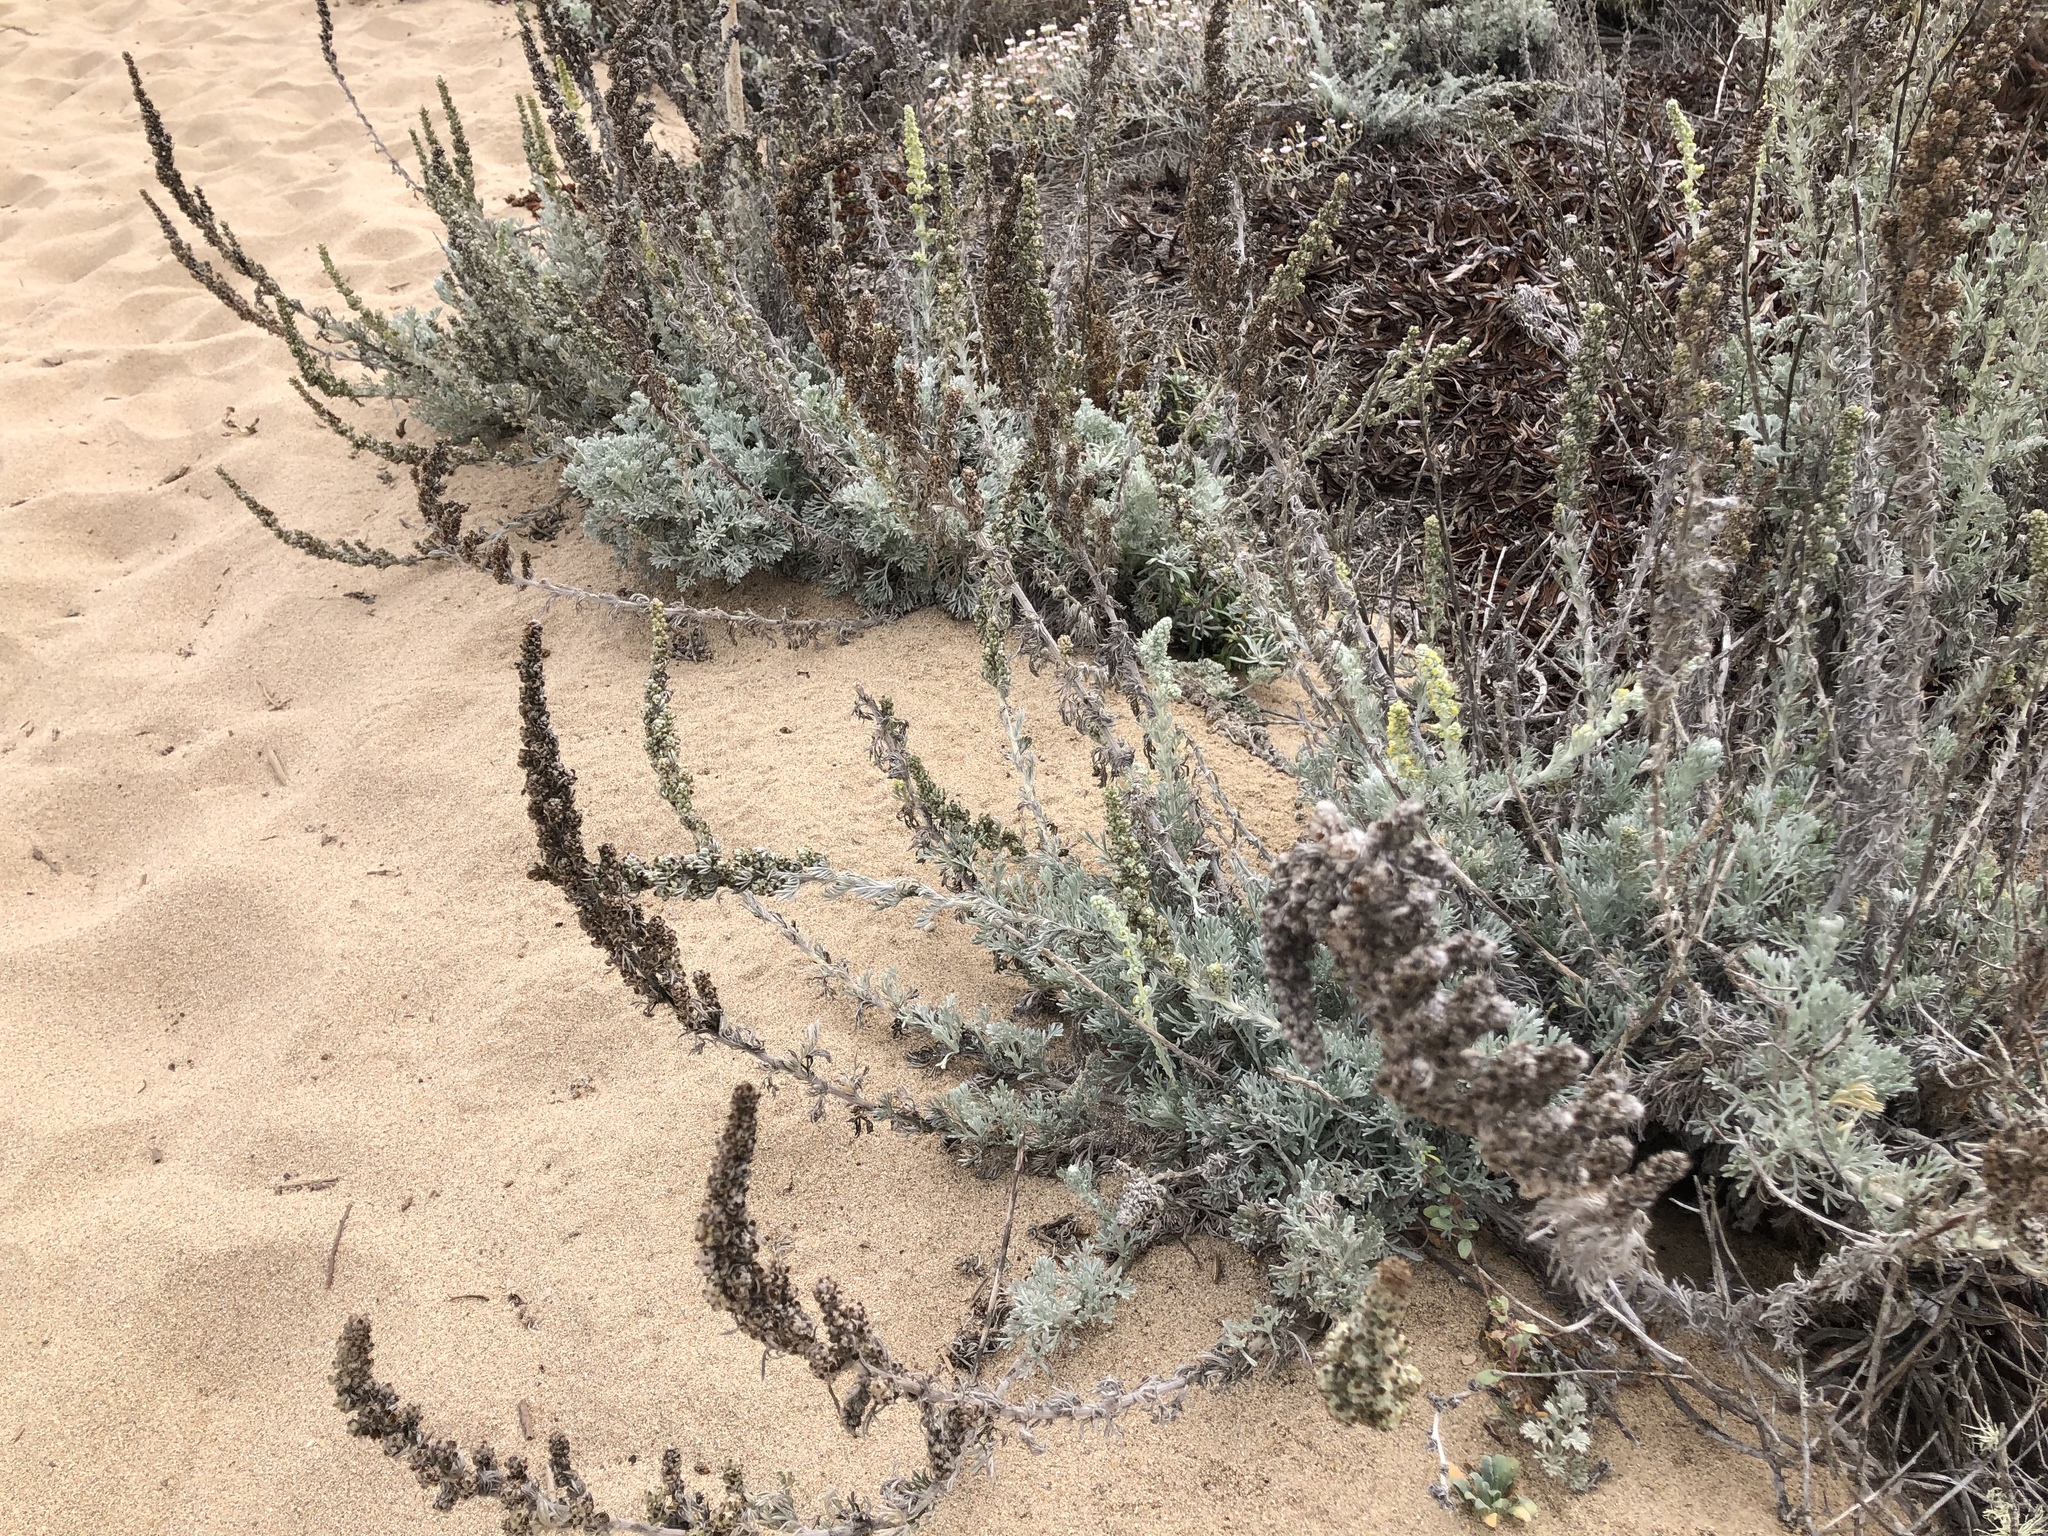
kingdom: Plantae
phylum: Tracheophyta
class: Magnoliopsida
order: Asterales
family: Asteraceae
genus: Artemisia
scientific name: Artemisia pycnocephala
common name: Coastal sagewort
